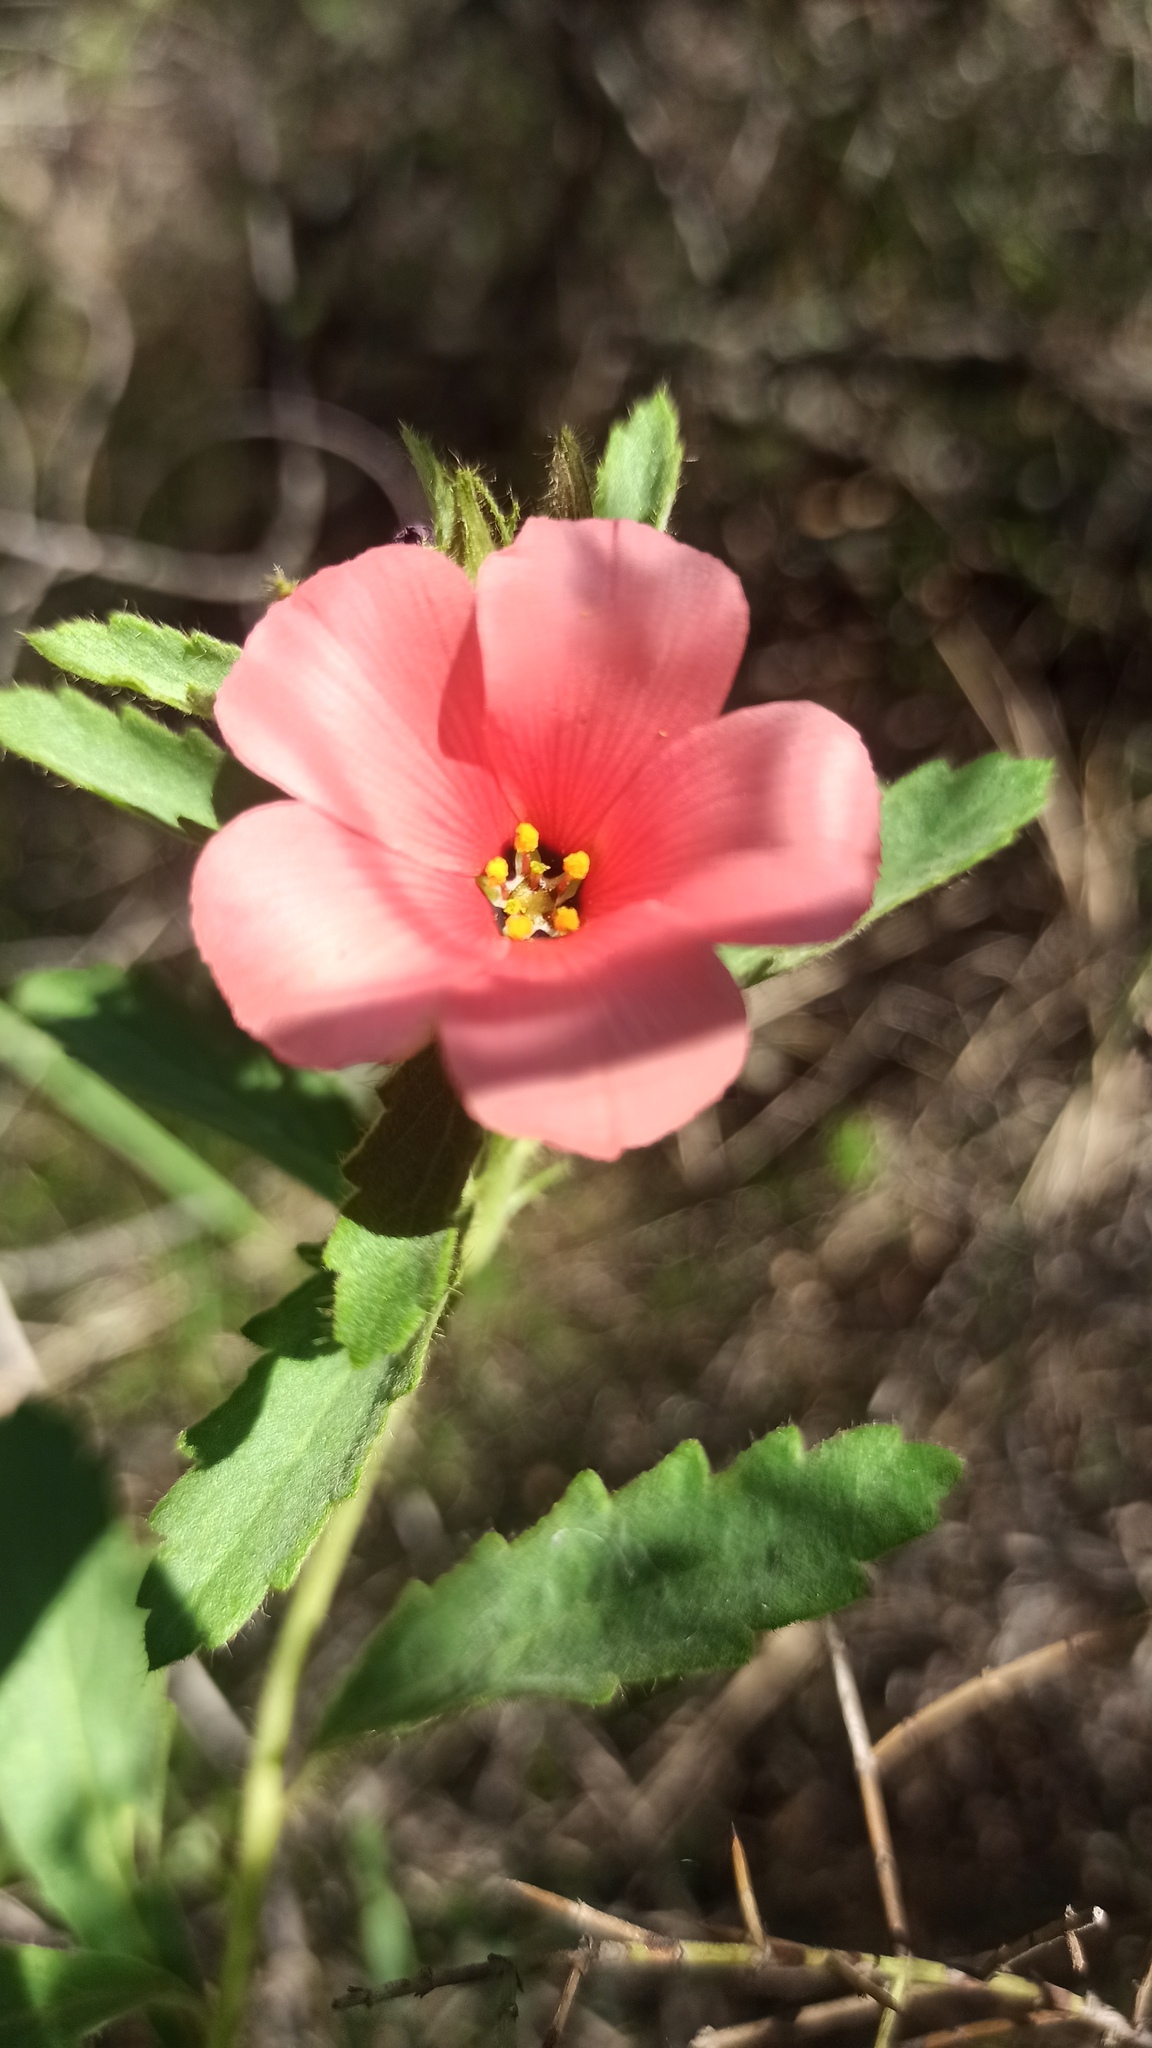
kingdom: Plantae
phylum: Tracheophyta
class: Magnoliopsida
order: Malpighiales
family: Turneraceae
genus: Turnera
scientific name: Turnera sidoides
